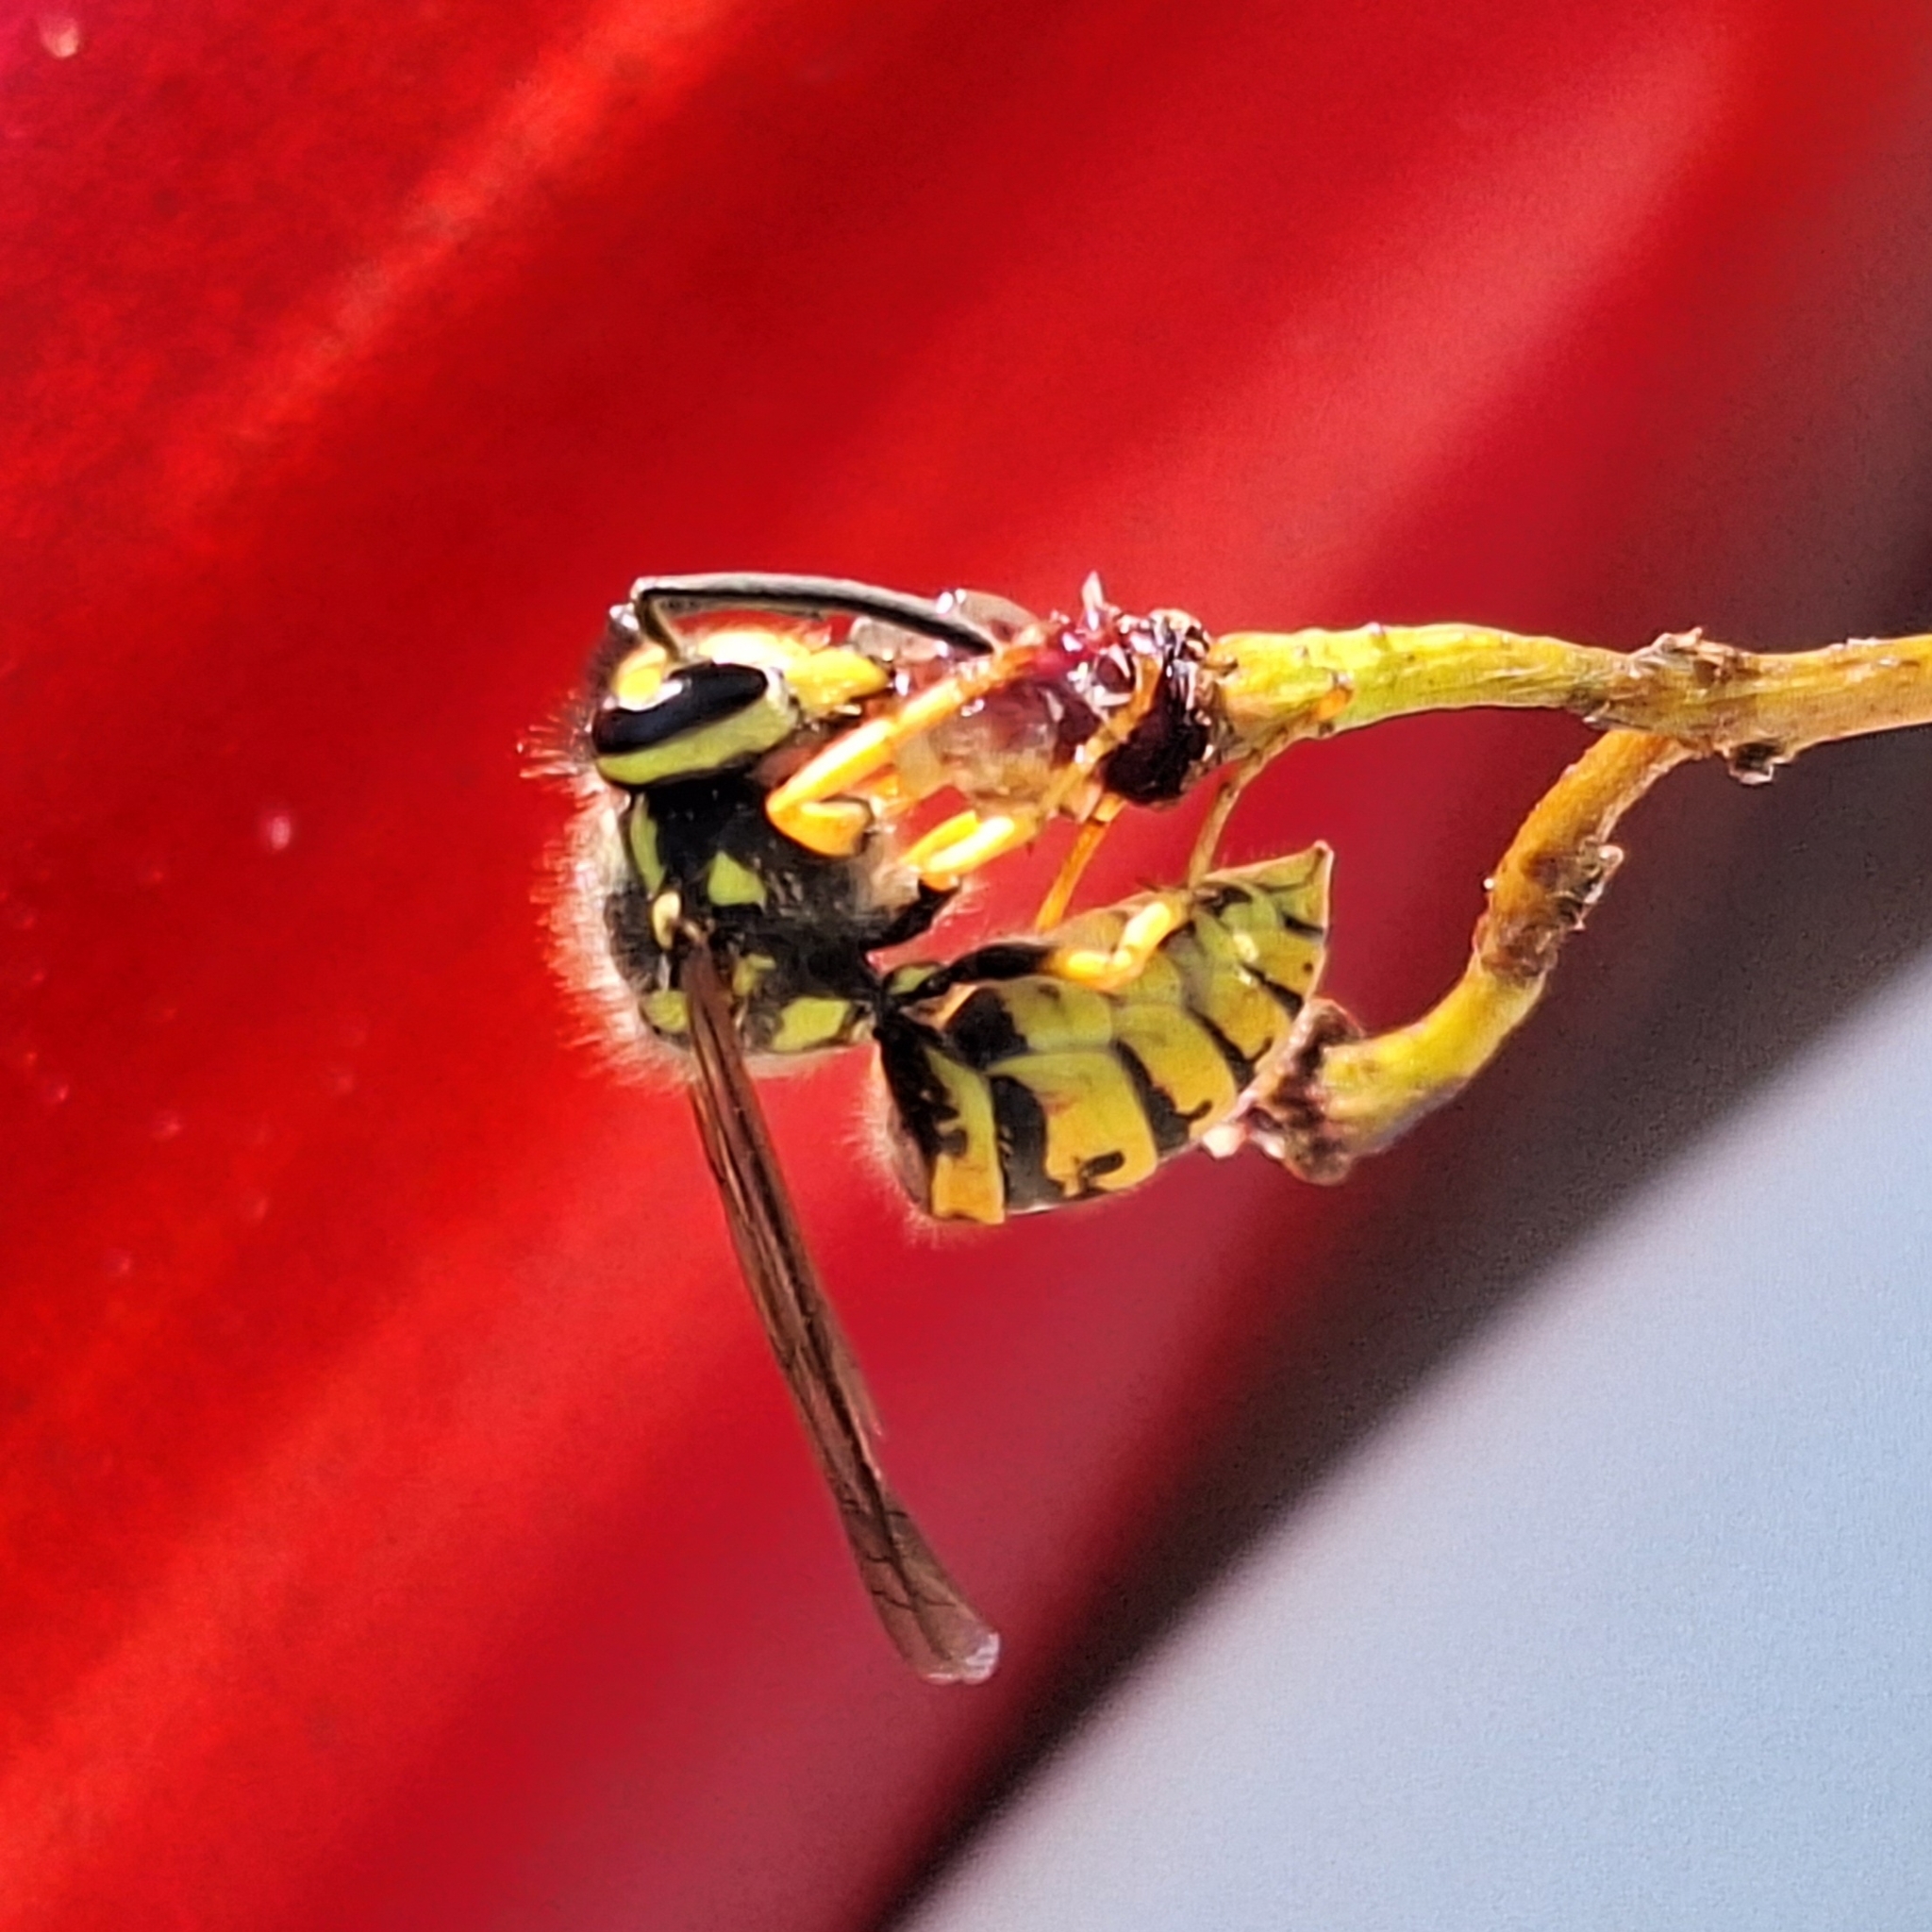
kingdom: Animalia
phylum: Arthropoda
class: Insecta
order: Hymenoptera
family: Vespidae
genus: Vespula
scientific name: Vespula germanica
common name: German wasp
